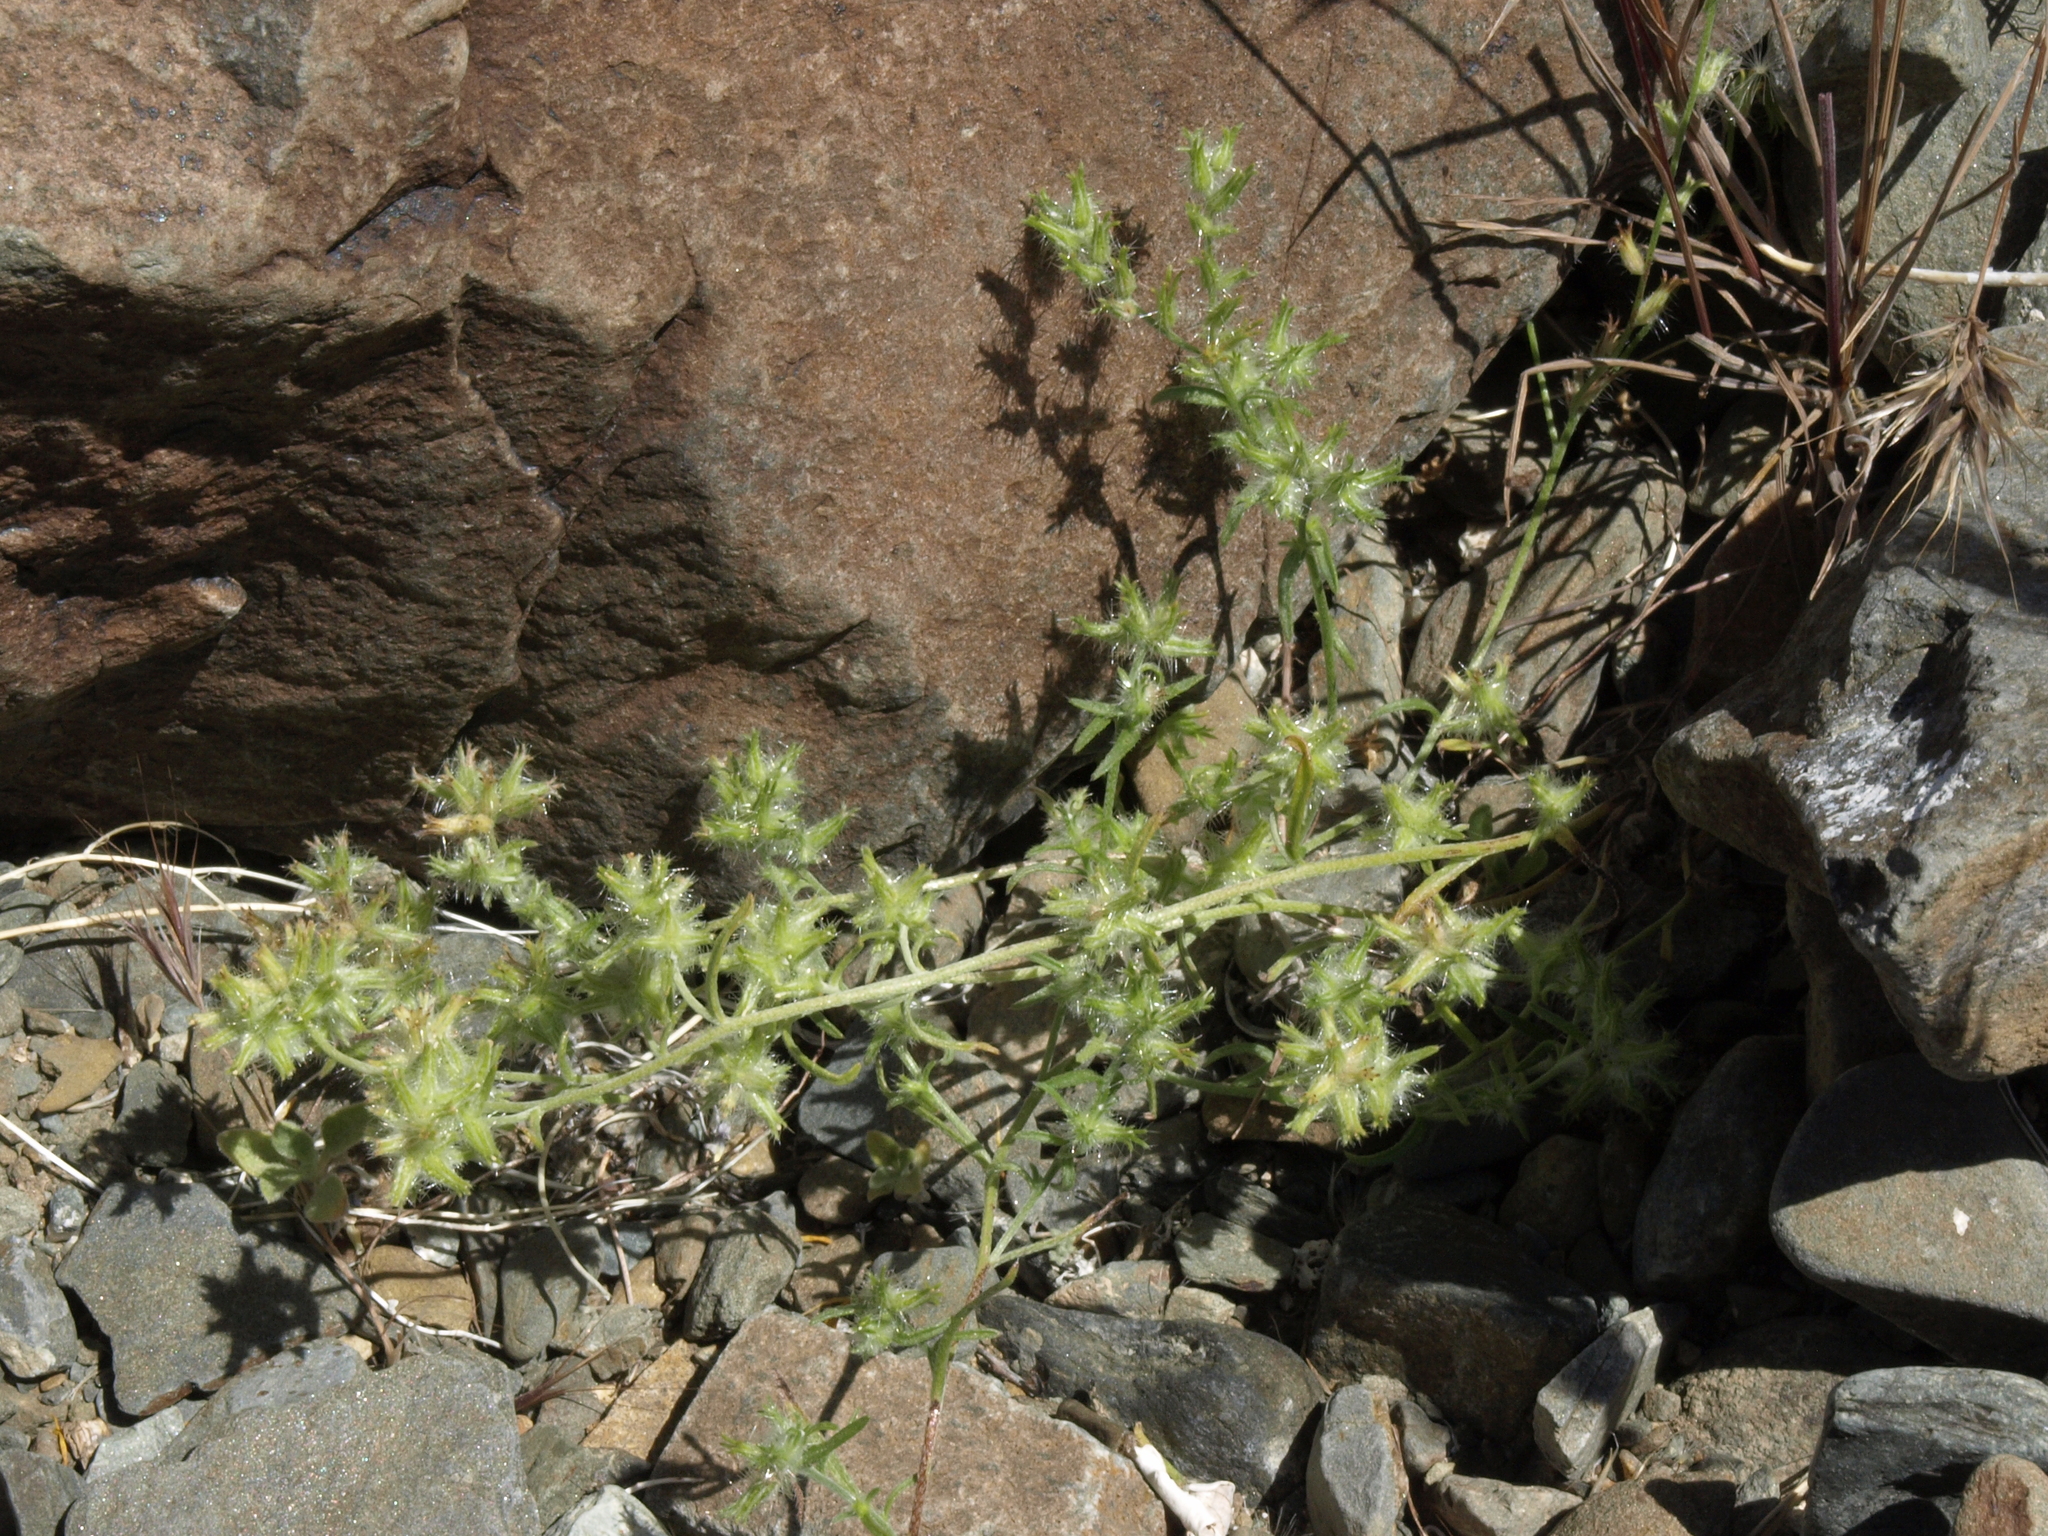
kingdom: Plantae
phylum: Tracheophyta
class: Magnoliopsida
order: Boraginales
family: Boraginaceae
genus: Cryptantha
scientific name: Cryptantha nevadensis
